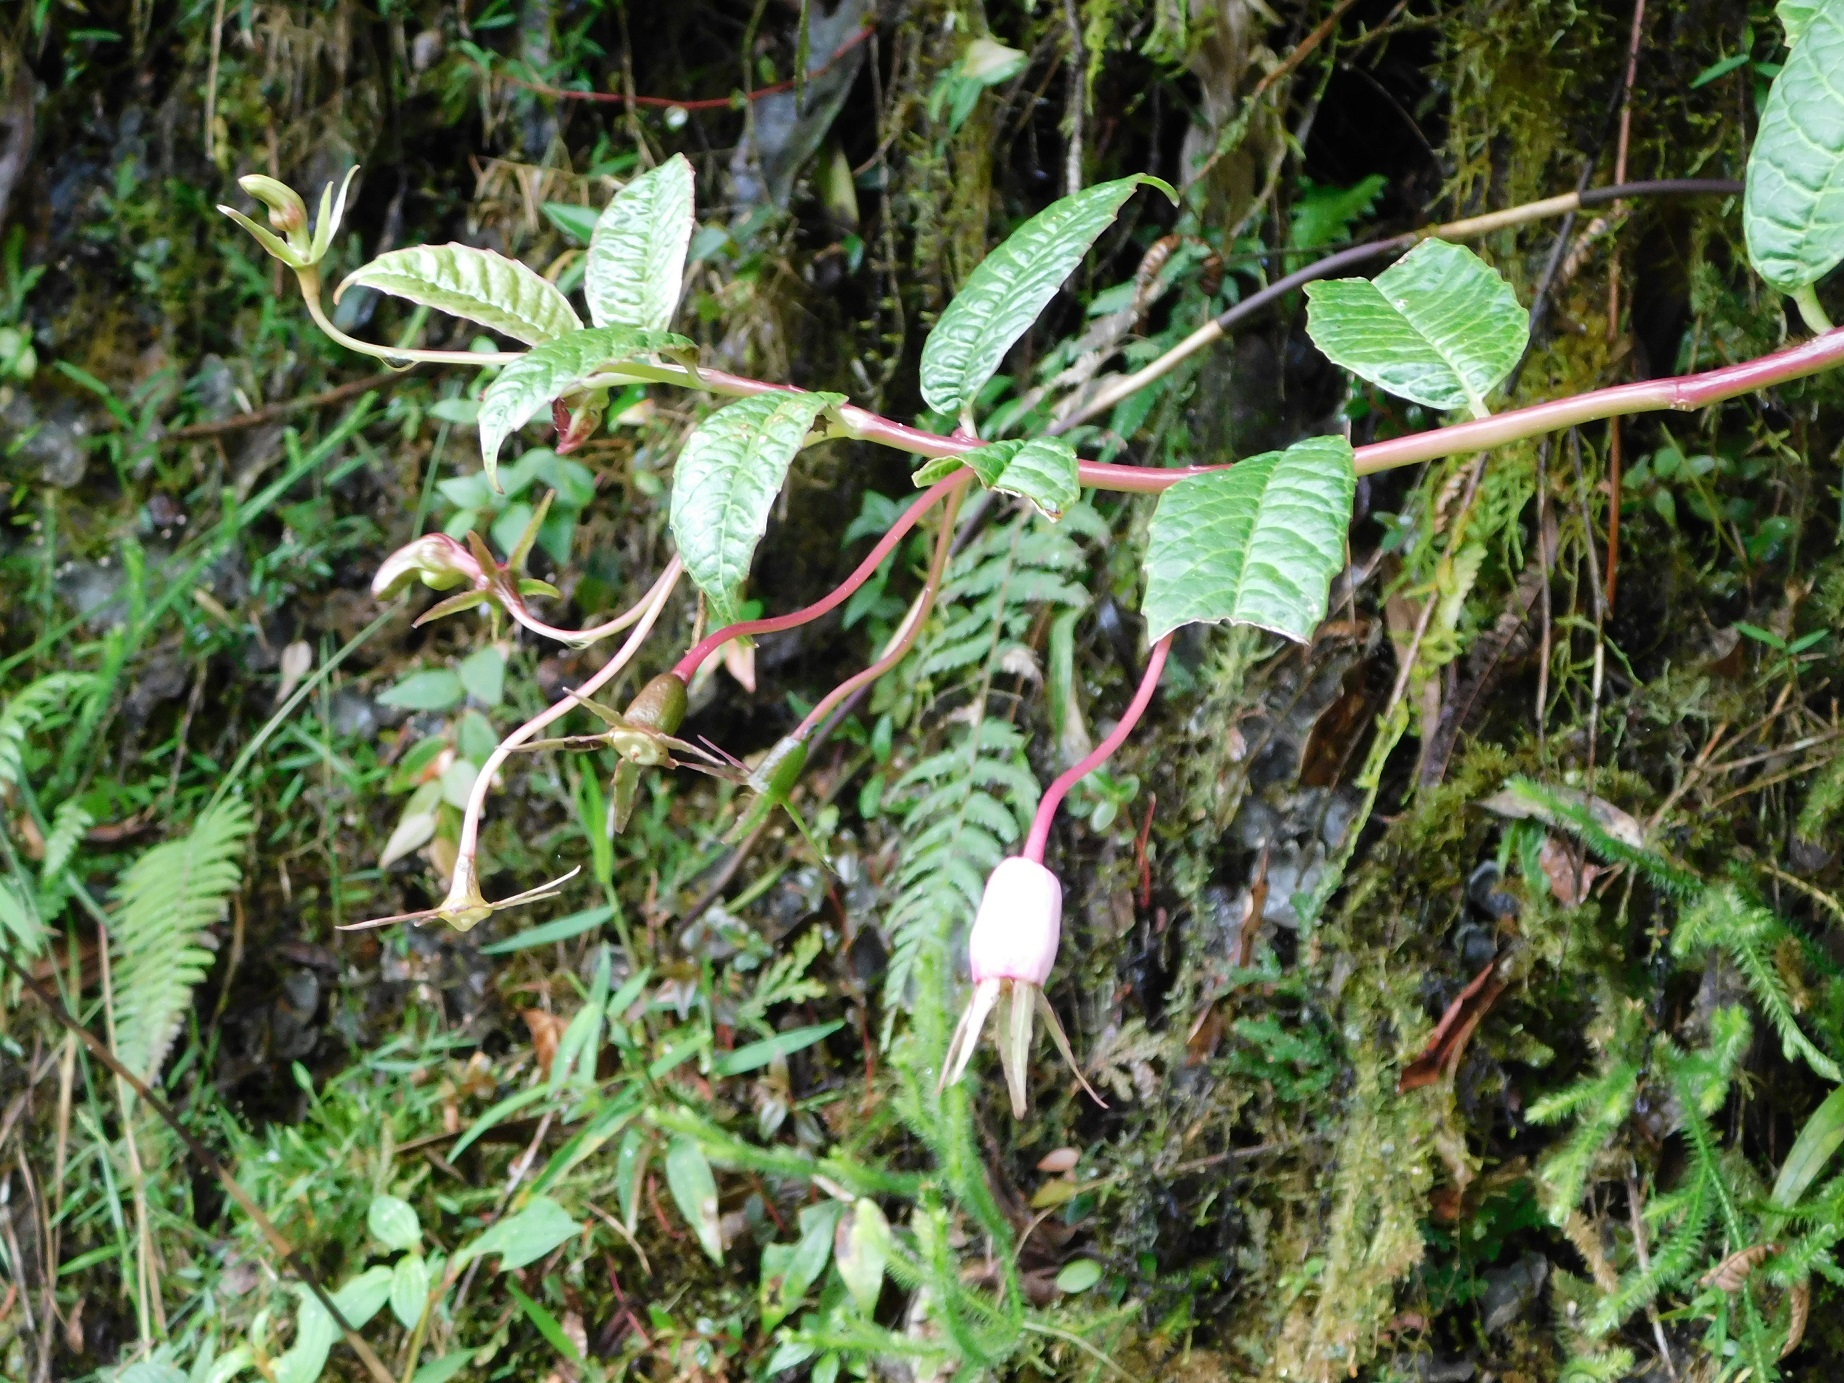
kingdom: Plantae
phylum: Tracheophyta
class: Magnoliopsida
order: Asterales
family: Campanulaceae
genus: Burmeistera
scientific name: Burmeistera succulenta
